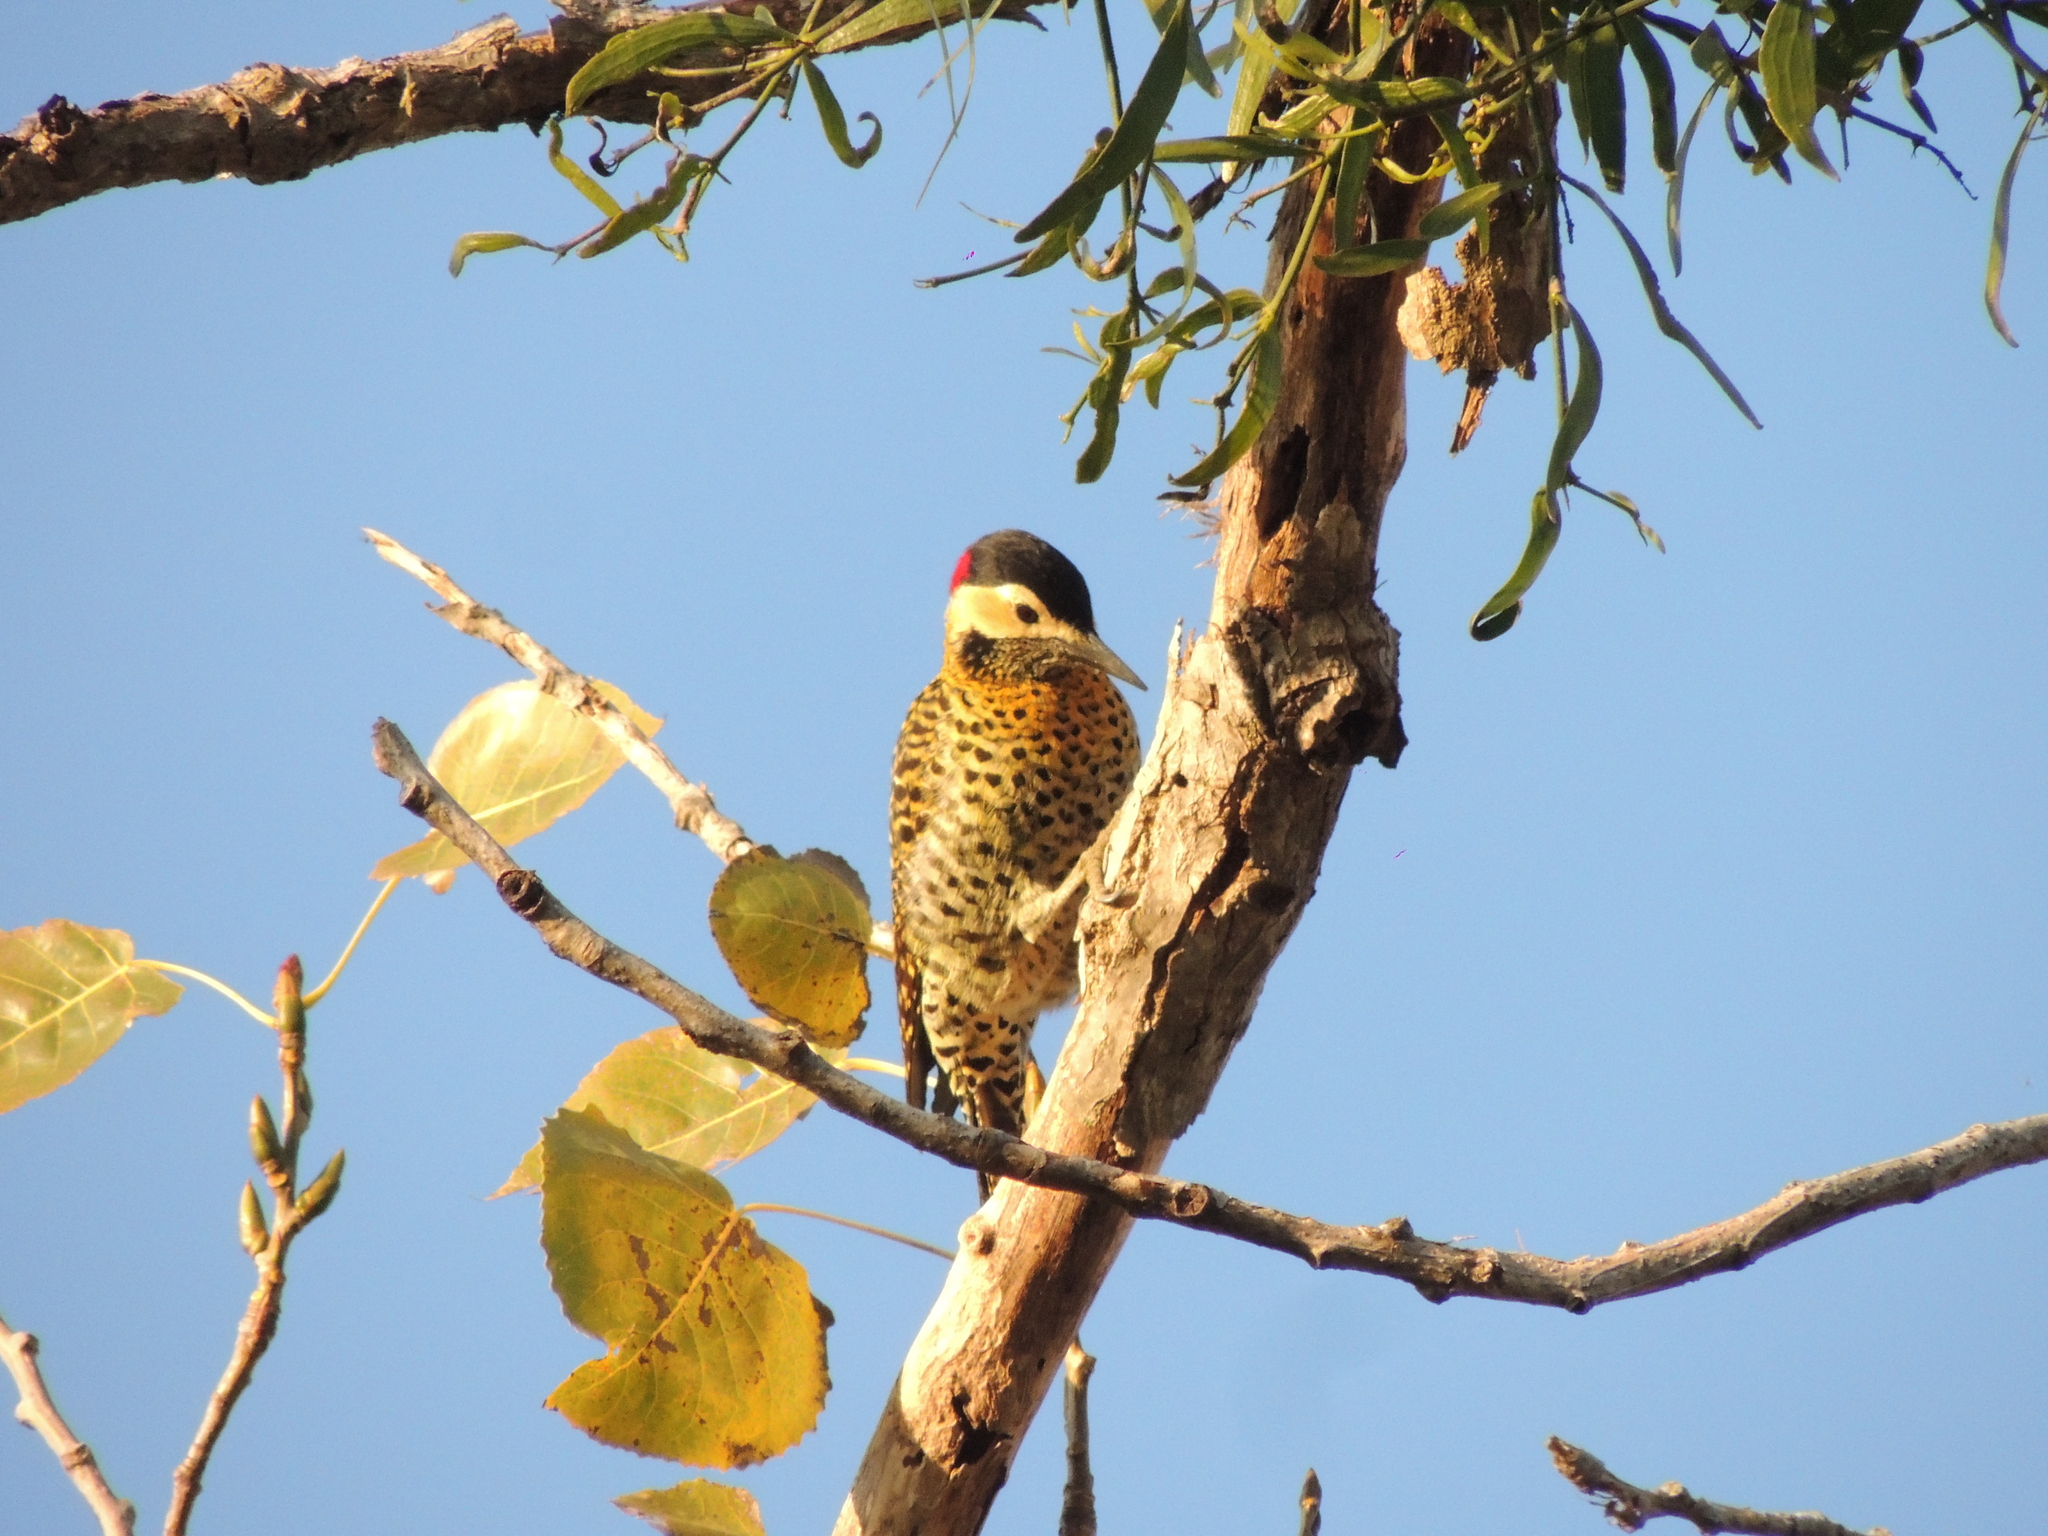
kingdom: Animalia
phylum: Chordata
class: Aves
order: Piciformes
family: Picidae
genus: Colaptes
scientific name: Colaptes melanochloros
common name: Green-barred woodpecker
